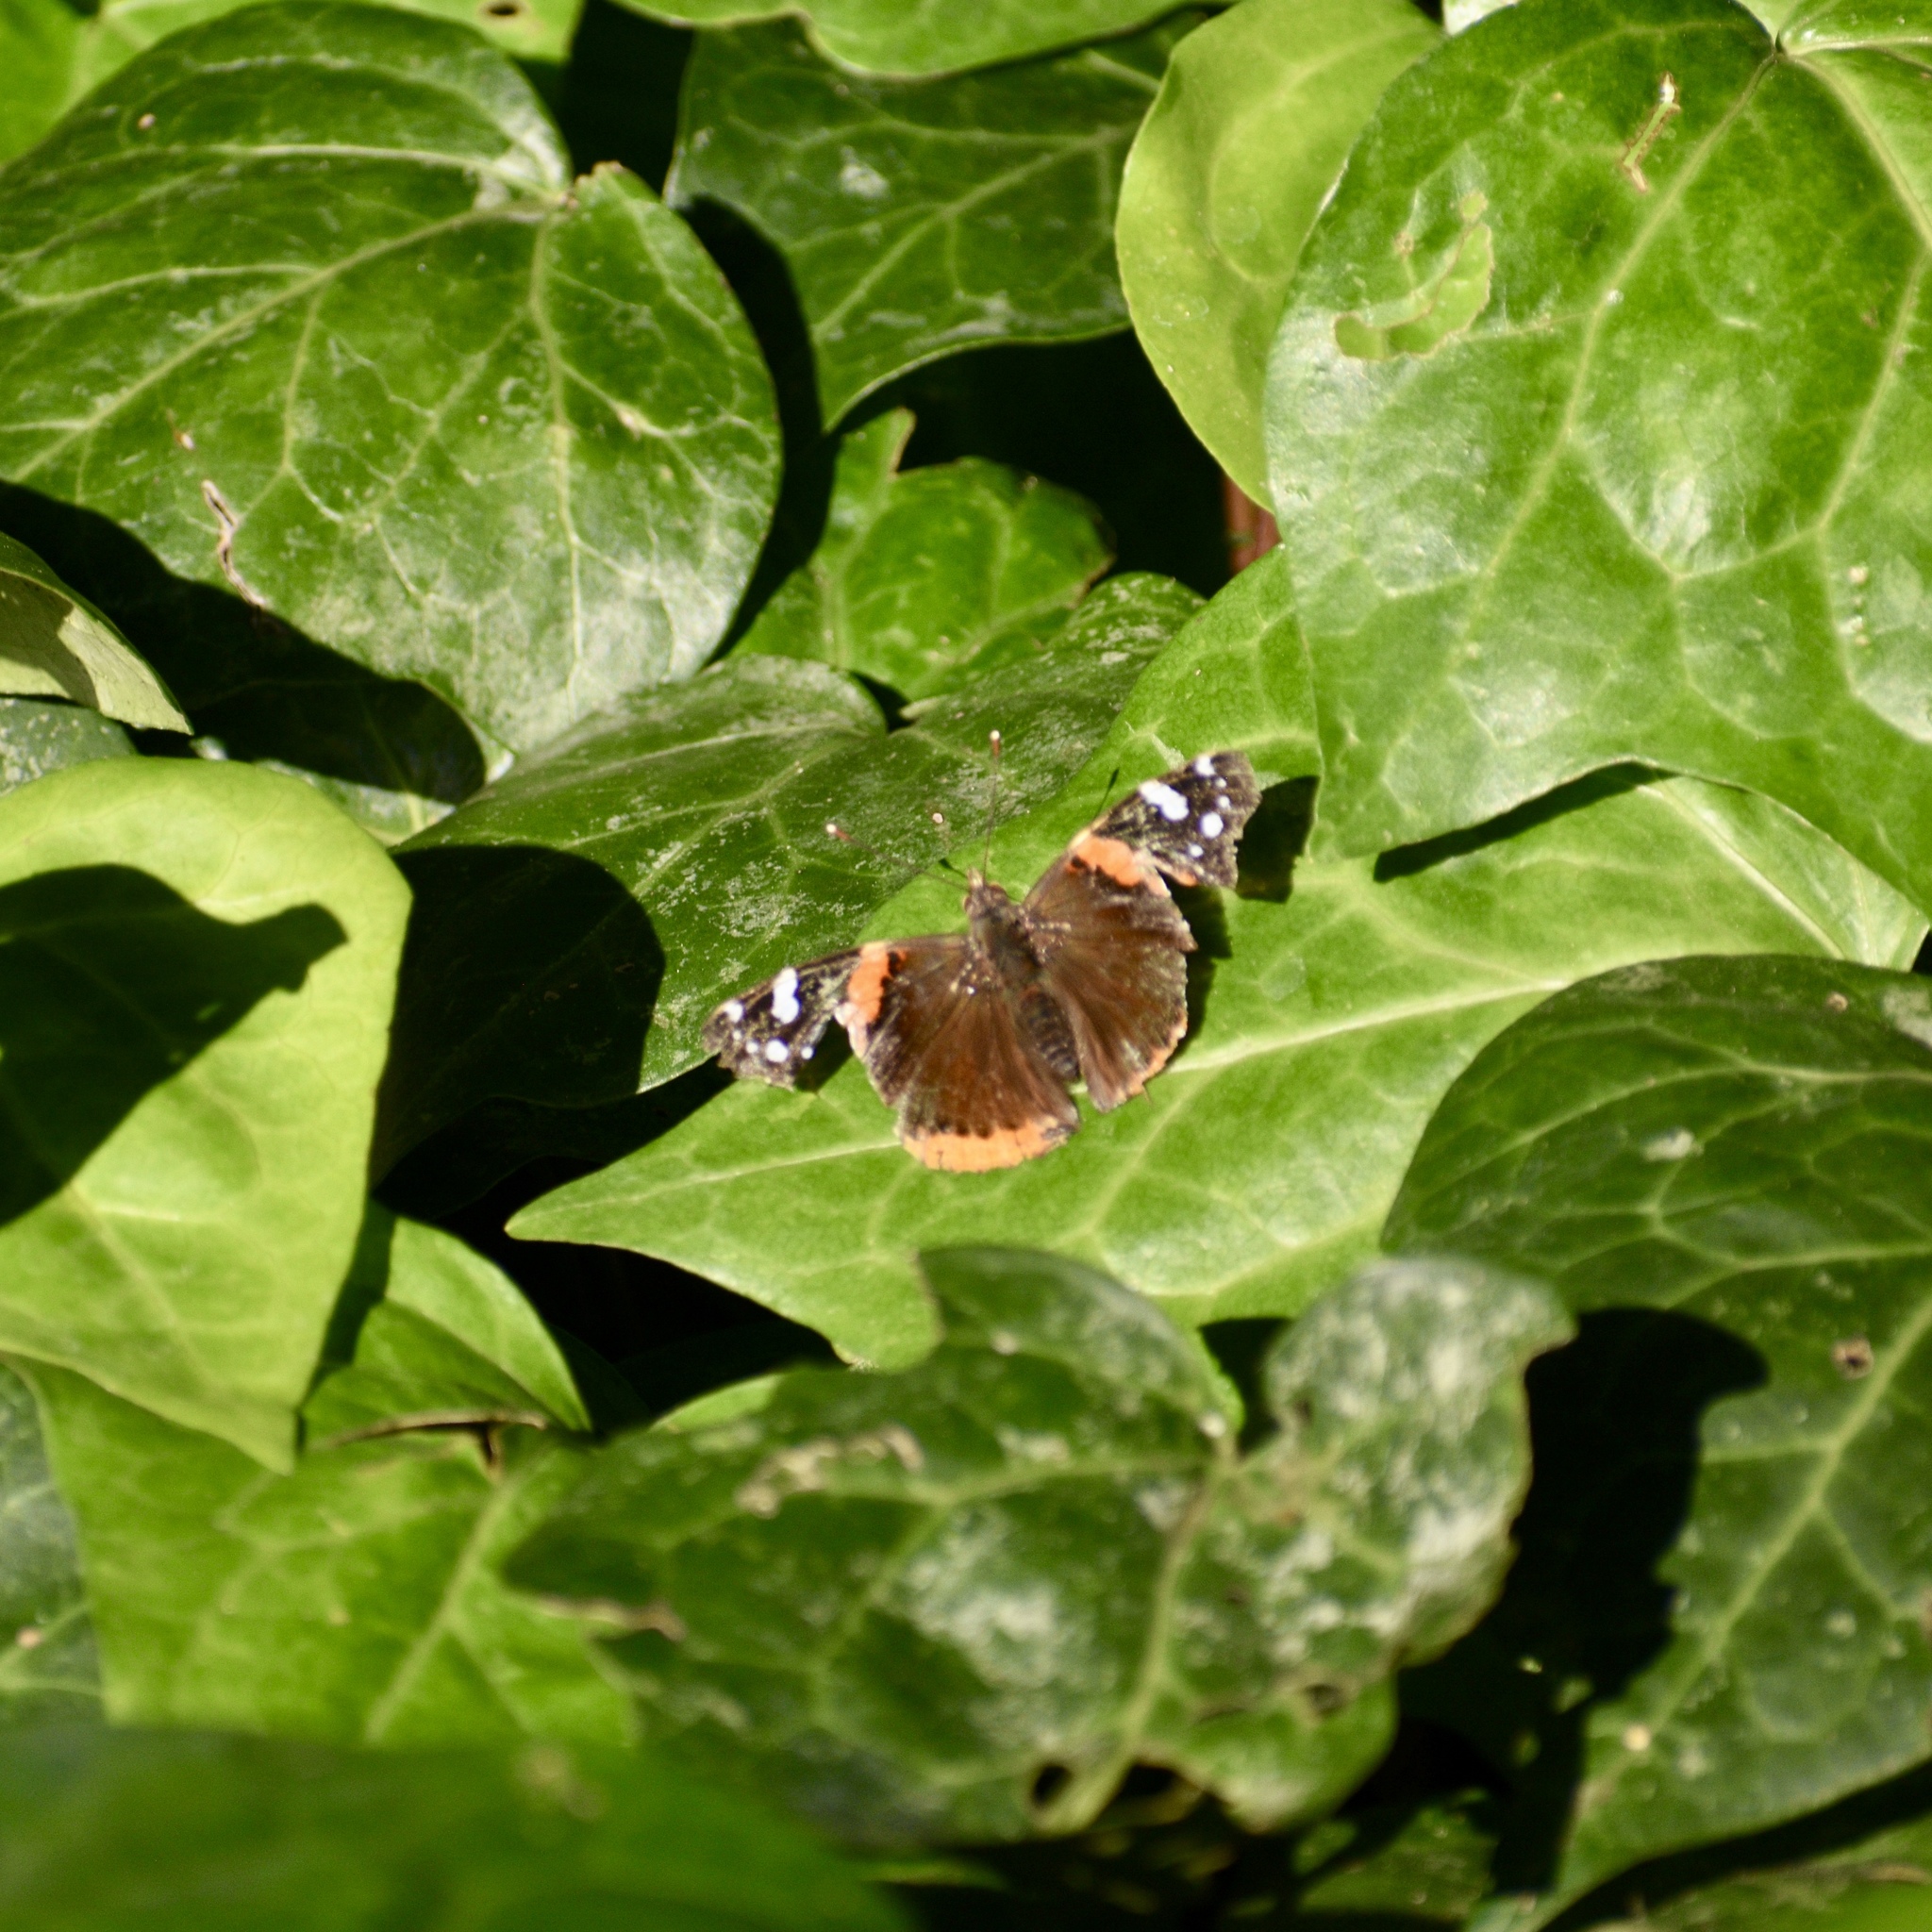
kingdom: Animalia
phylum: Arthropoda
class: Insecta
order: Lepidoptera
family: Nymphalidae
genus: Vanessa
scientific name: Vanessa atalanta
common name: Red admiral
